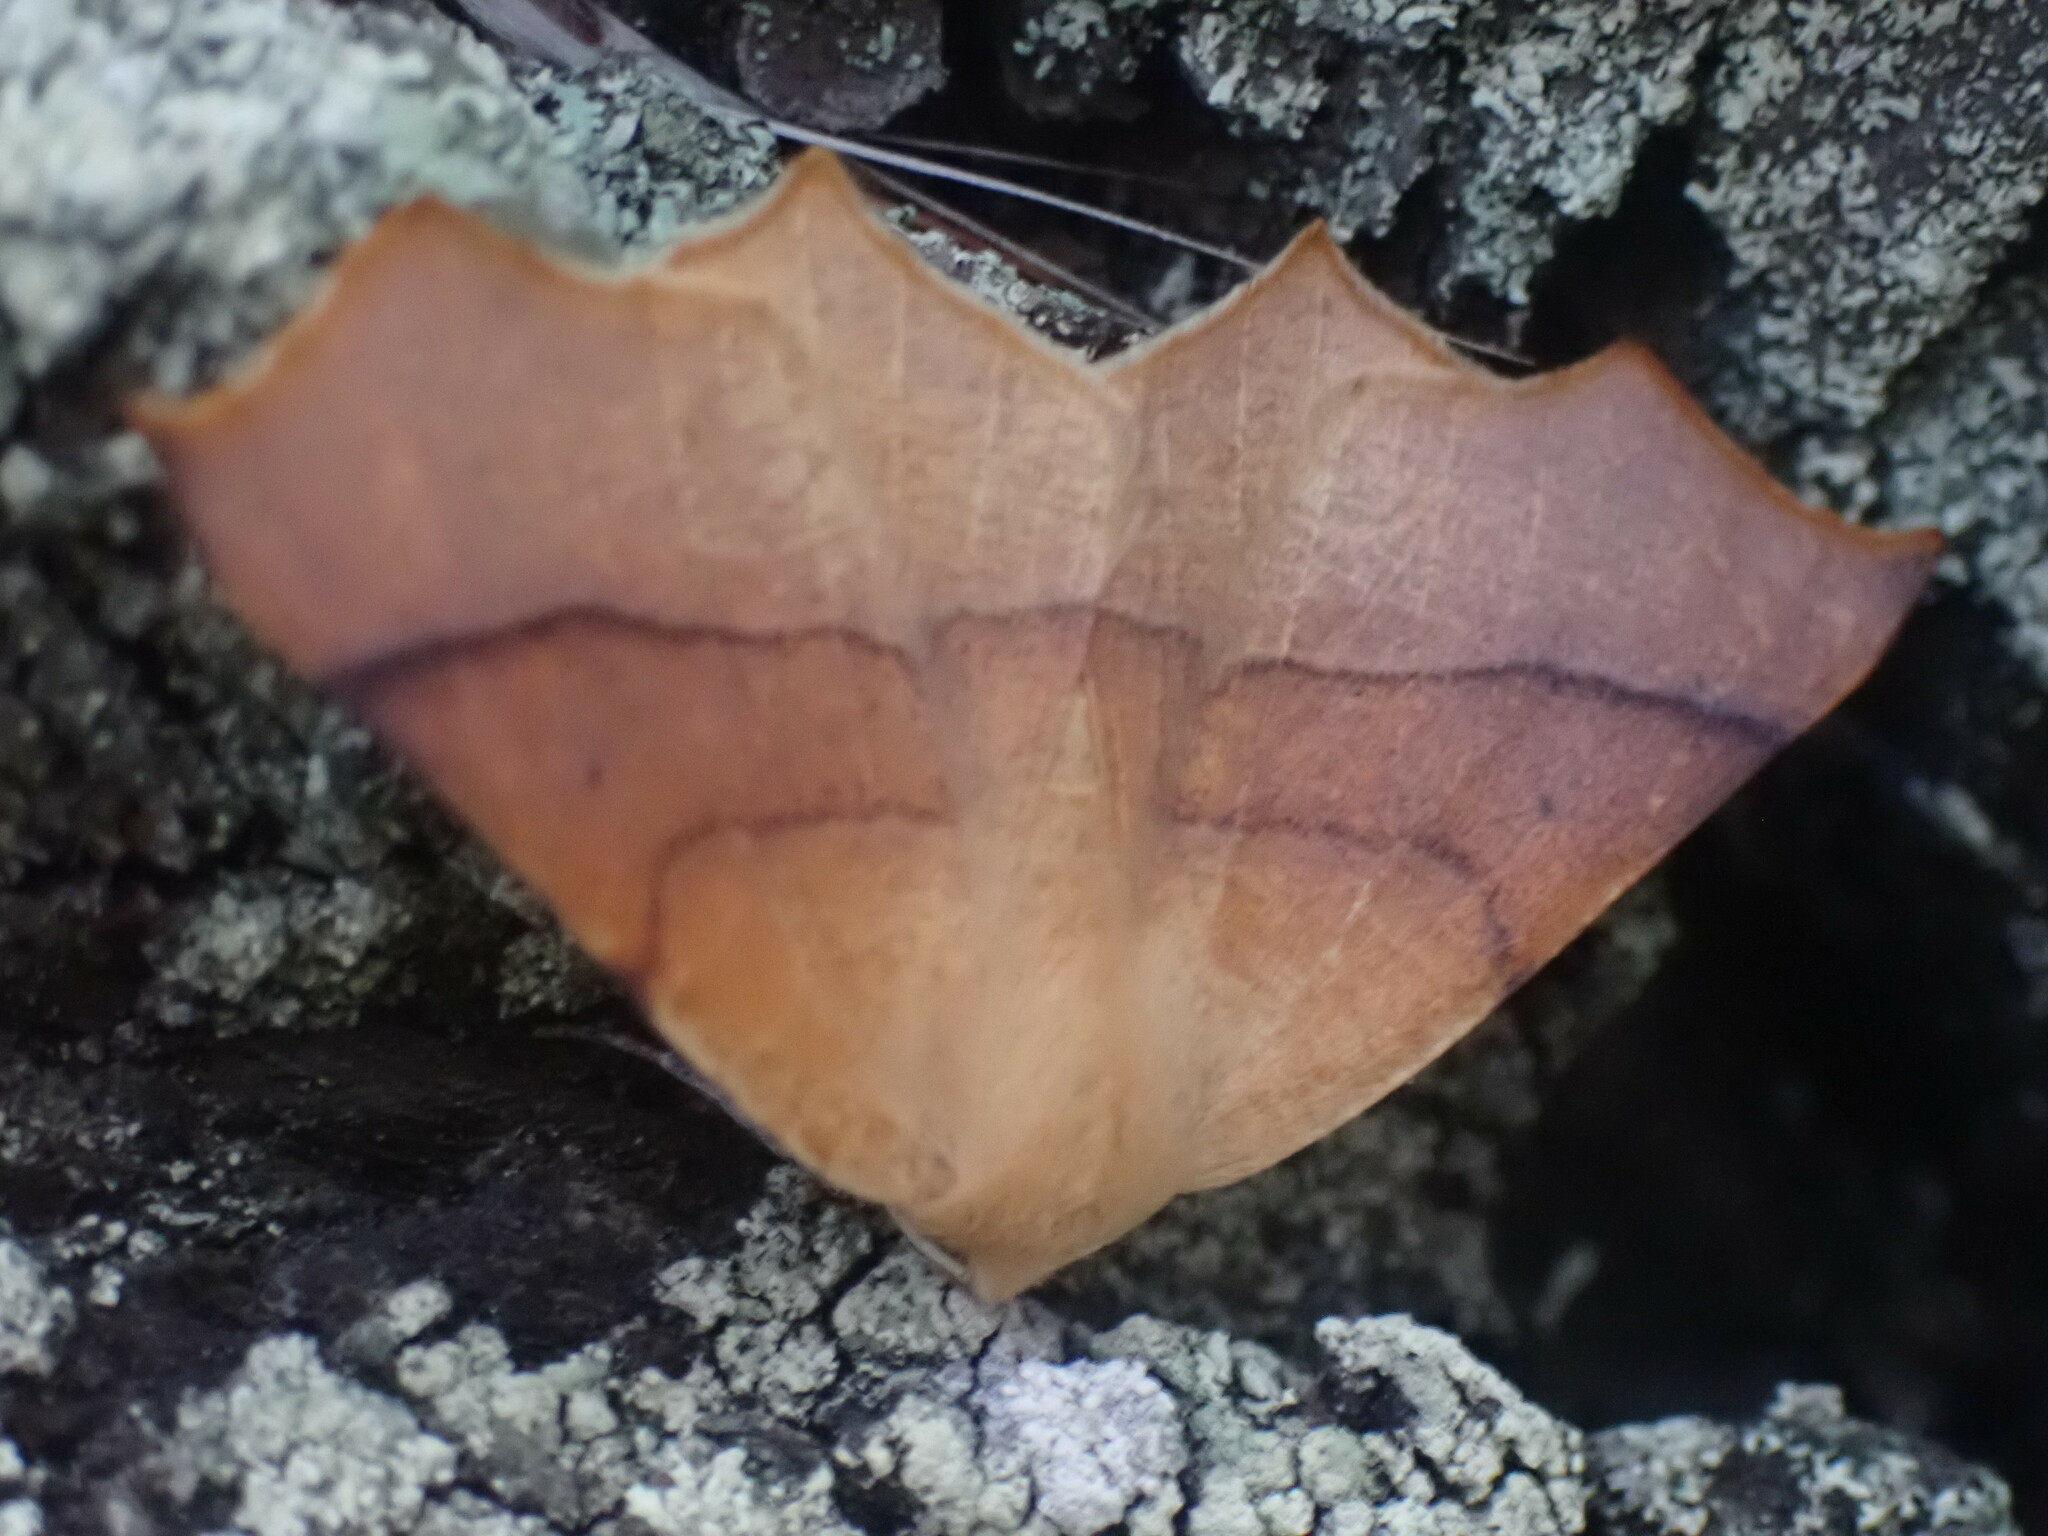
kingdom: Animalia
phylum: Arthropoda
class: Insecta
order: Lepidoptera
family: Geometridae
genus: Tetracis
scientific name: Tetracis cervinaria
